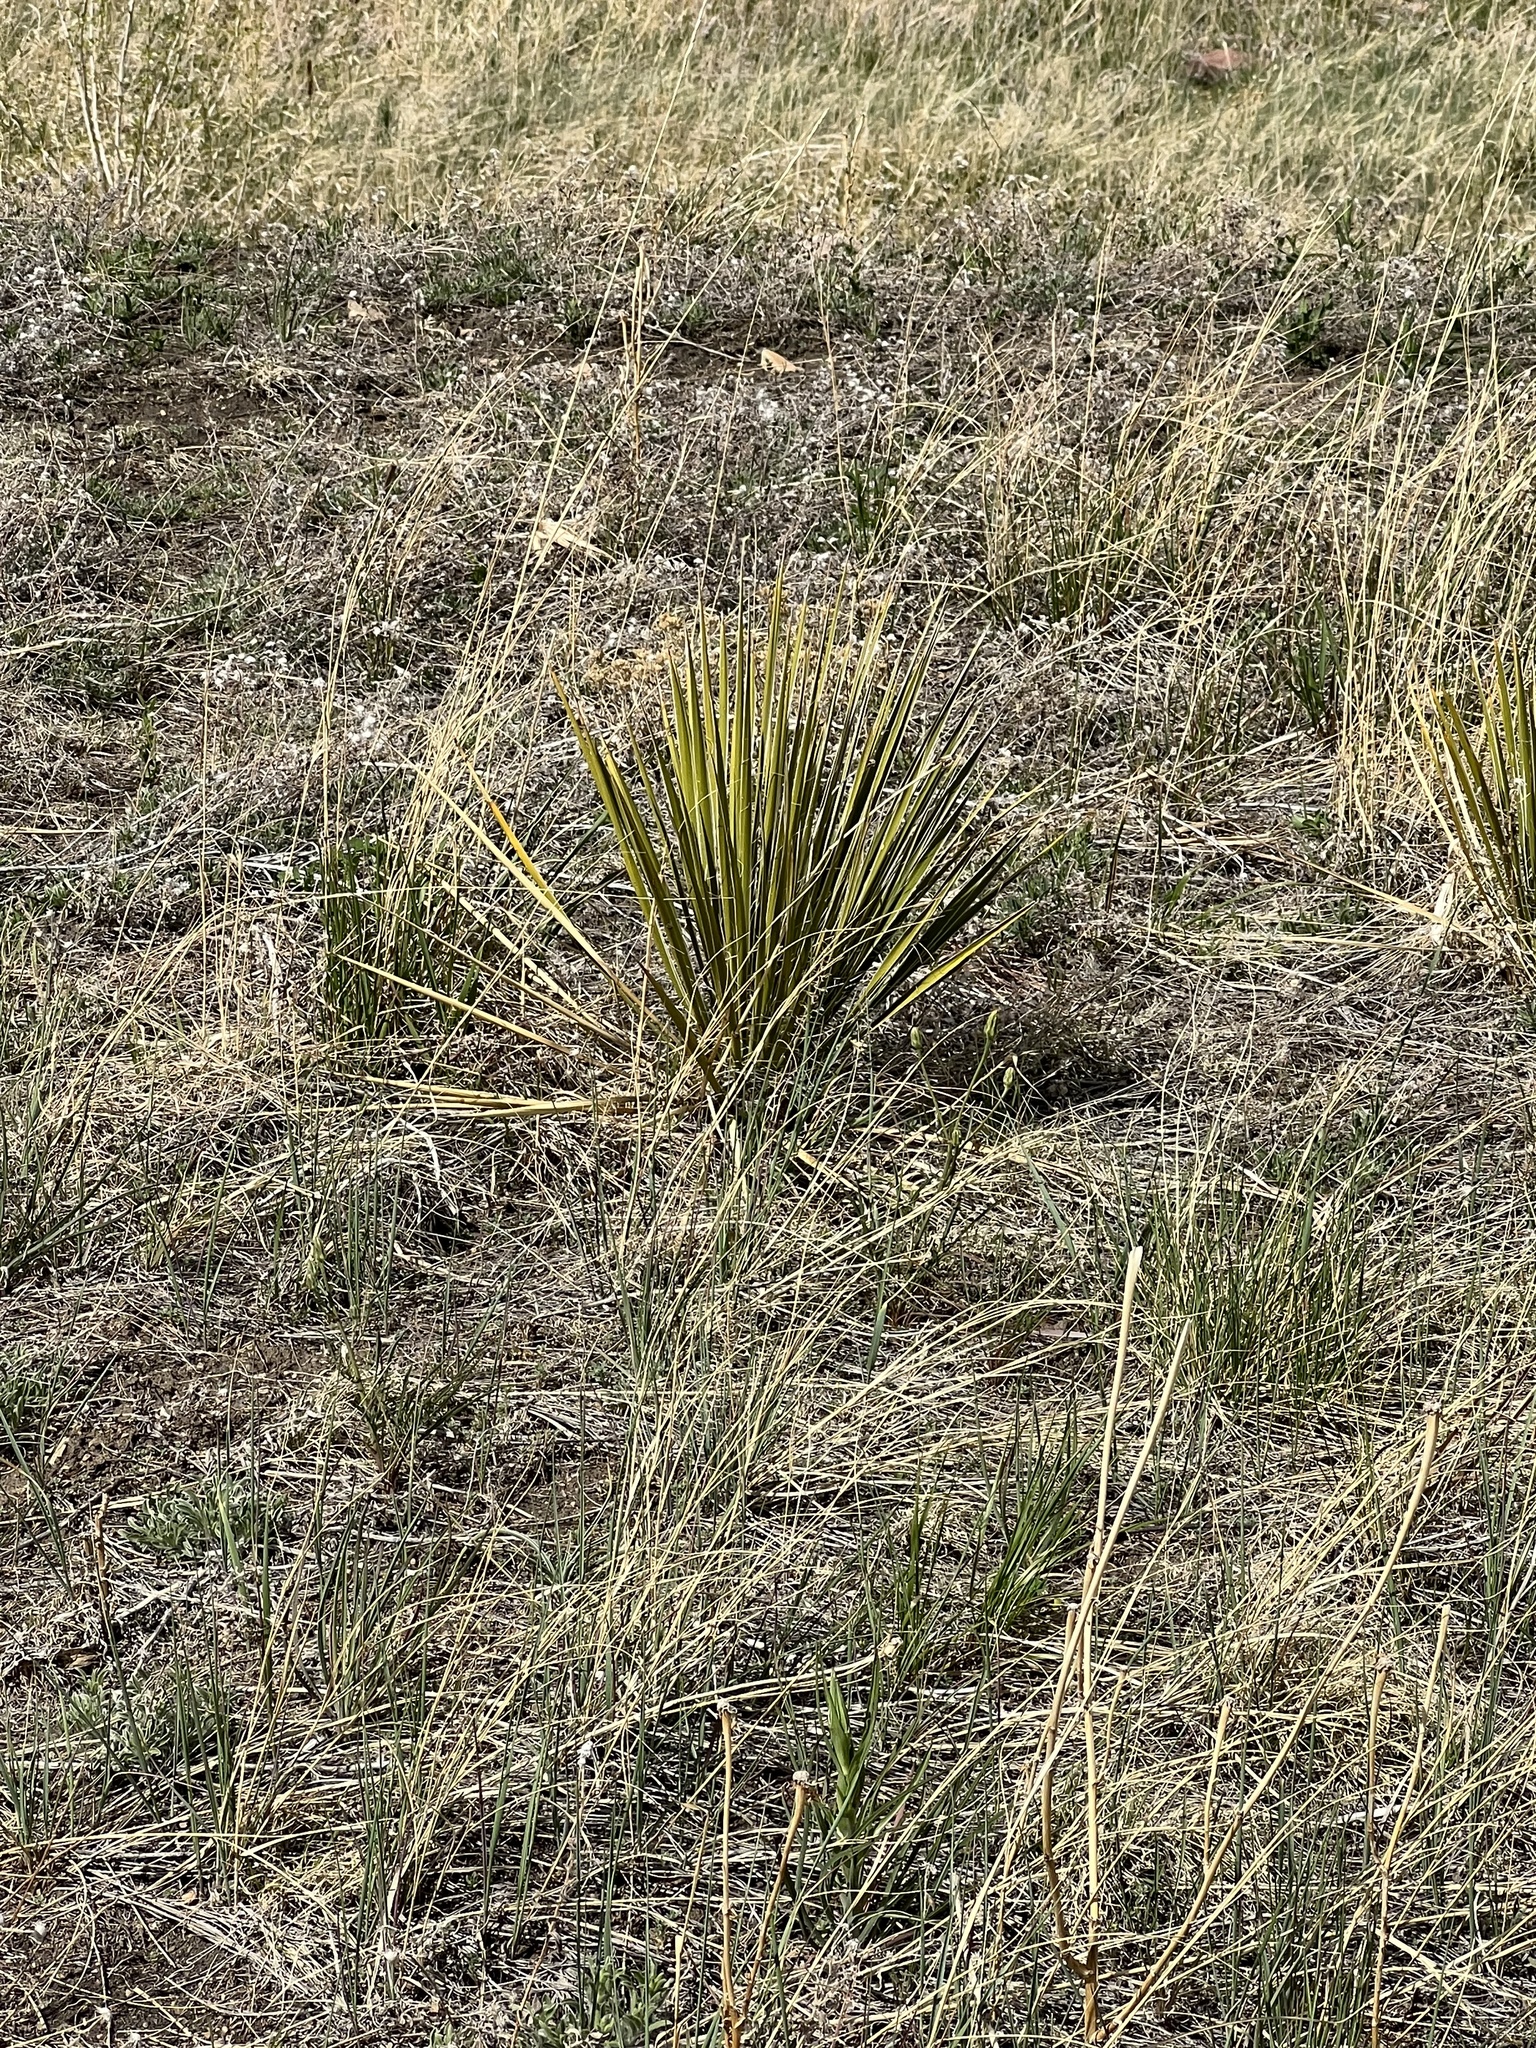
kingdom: Plantae
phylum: Tracheophyta
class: Liliopsida
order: Asparagales
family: Asparagaceae
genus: Yucca
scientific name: Yucca glauca
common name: Great plains yucca
